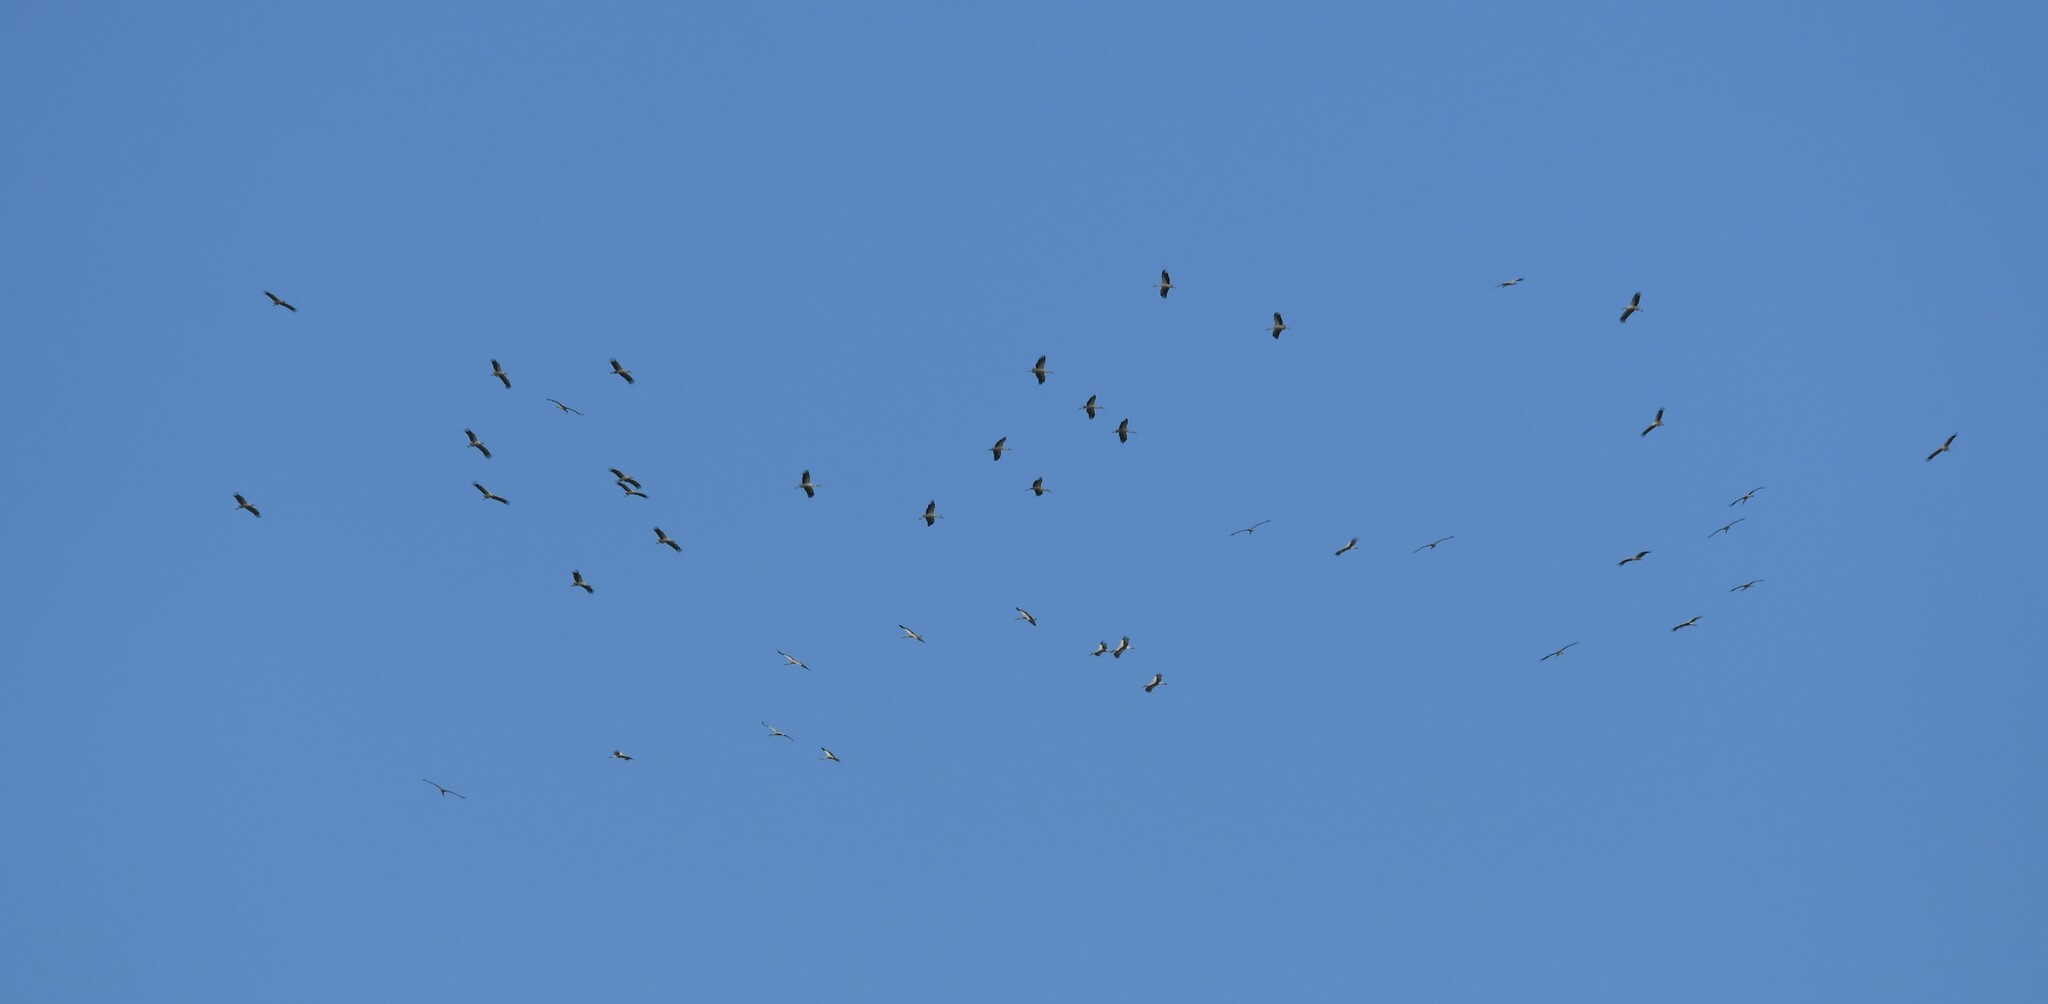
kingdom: Animalia
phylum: Chordata
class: Aves
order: Ciconiiformes
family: Ciconiidae
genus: Ciconia
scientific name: Ciconia ciconia
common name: White stork
